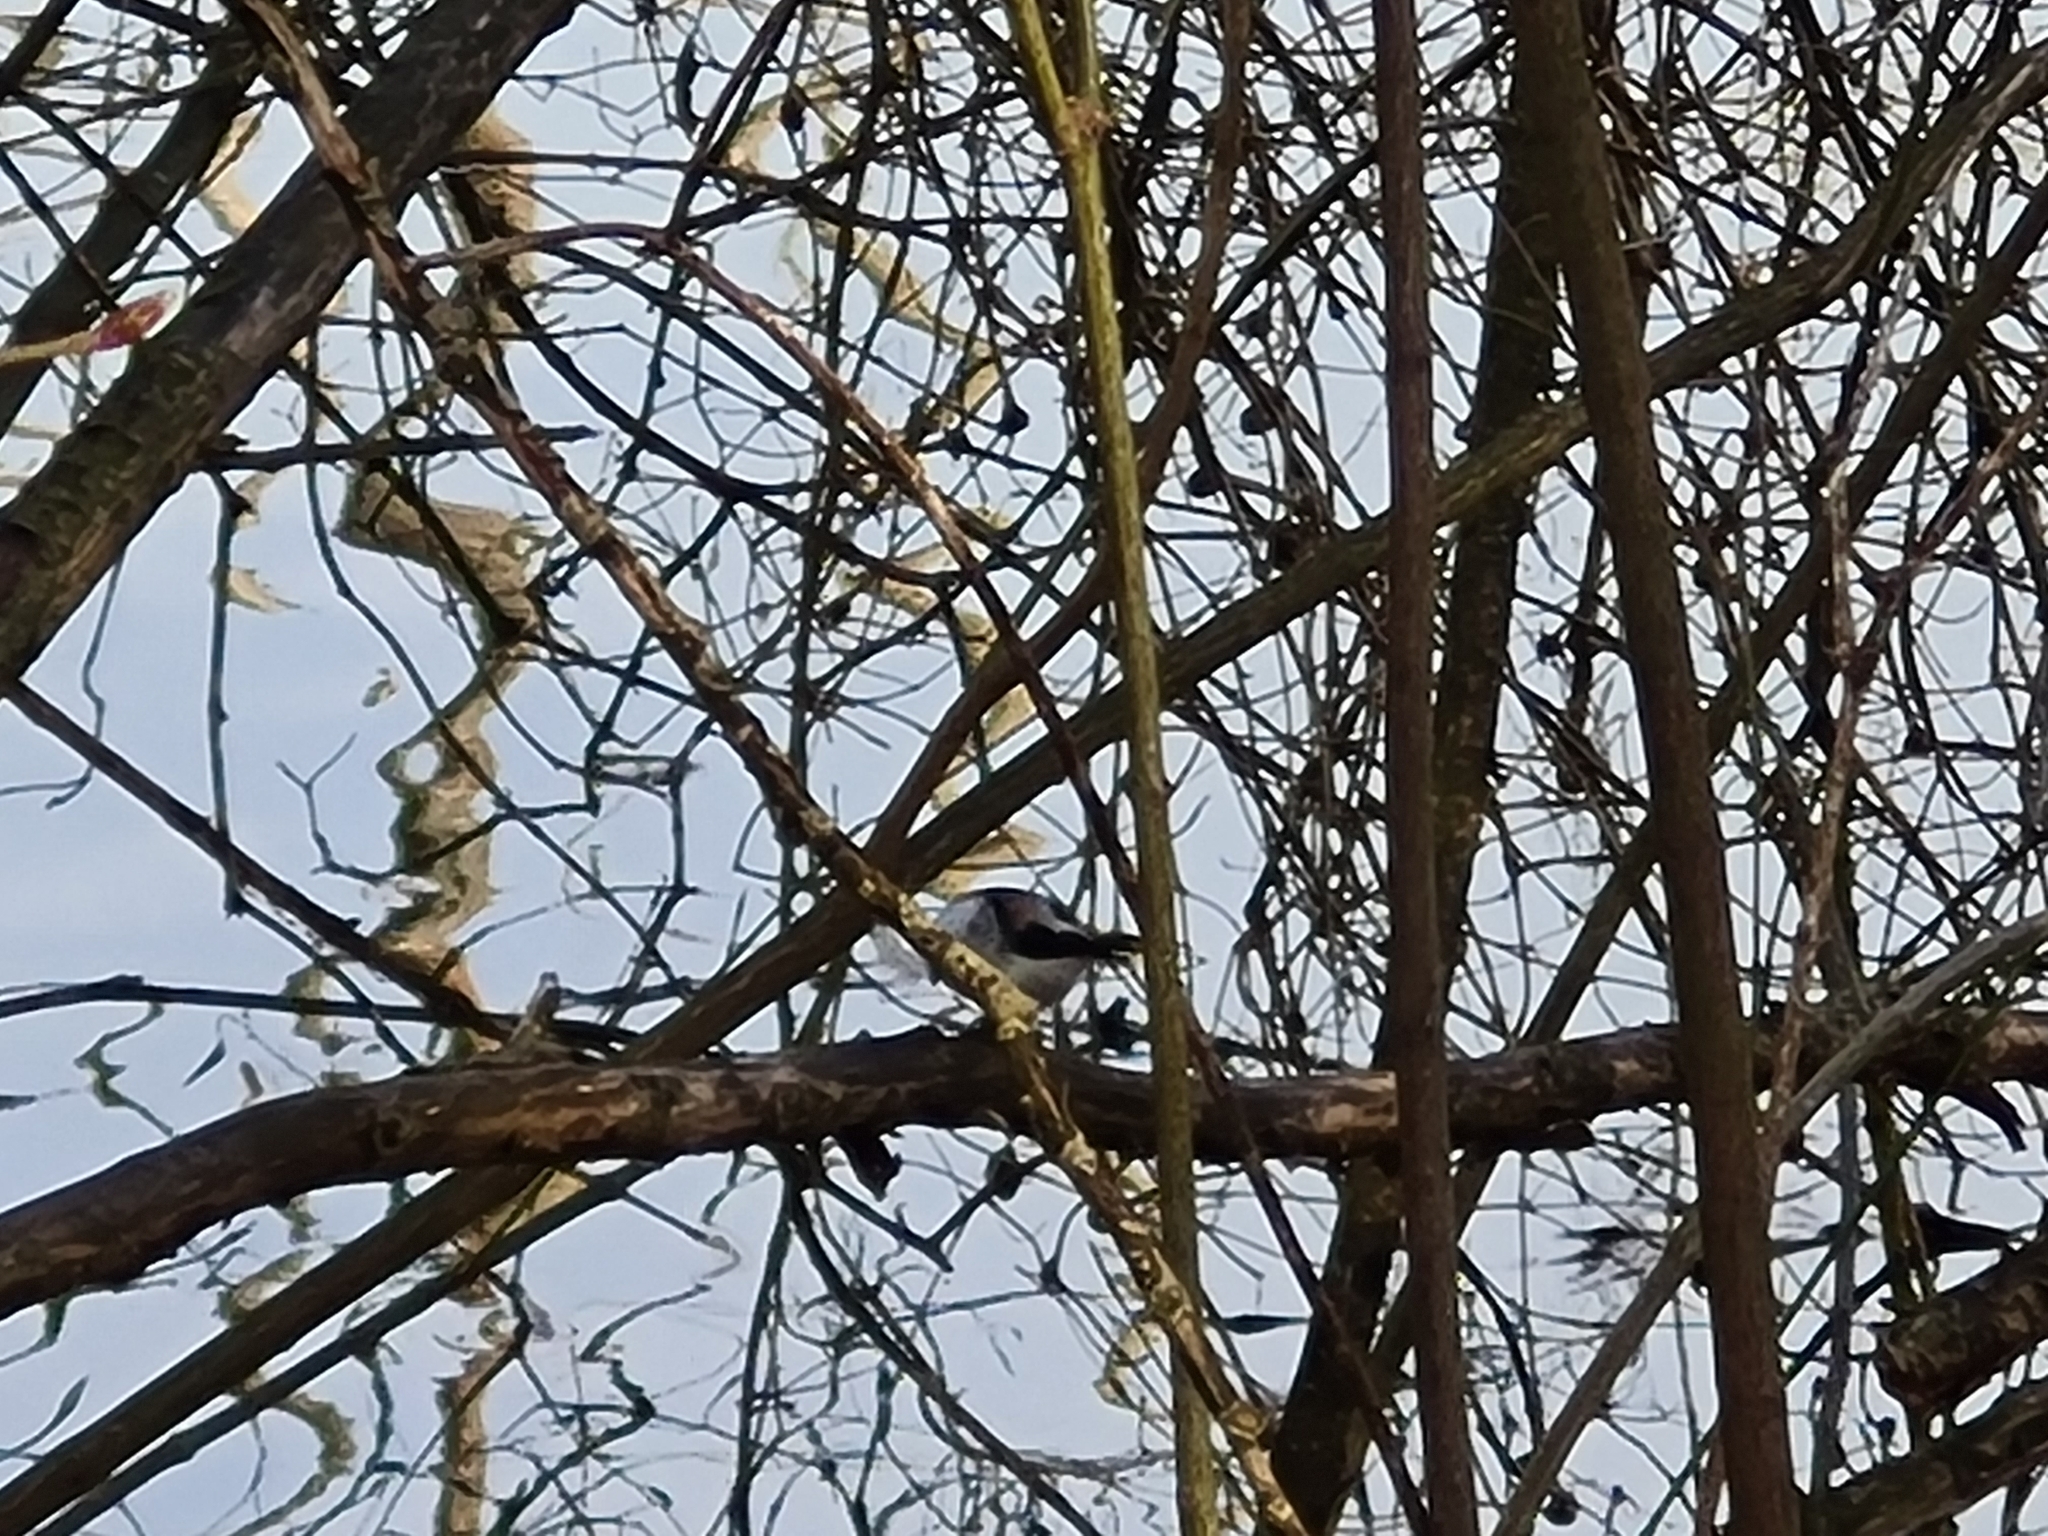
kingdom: Animalia
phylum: Chordata
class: Aves
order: Passeriformes
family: Aegithalidae
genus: Aegithalos
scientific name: Aegithalos caudatus
